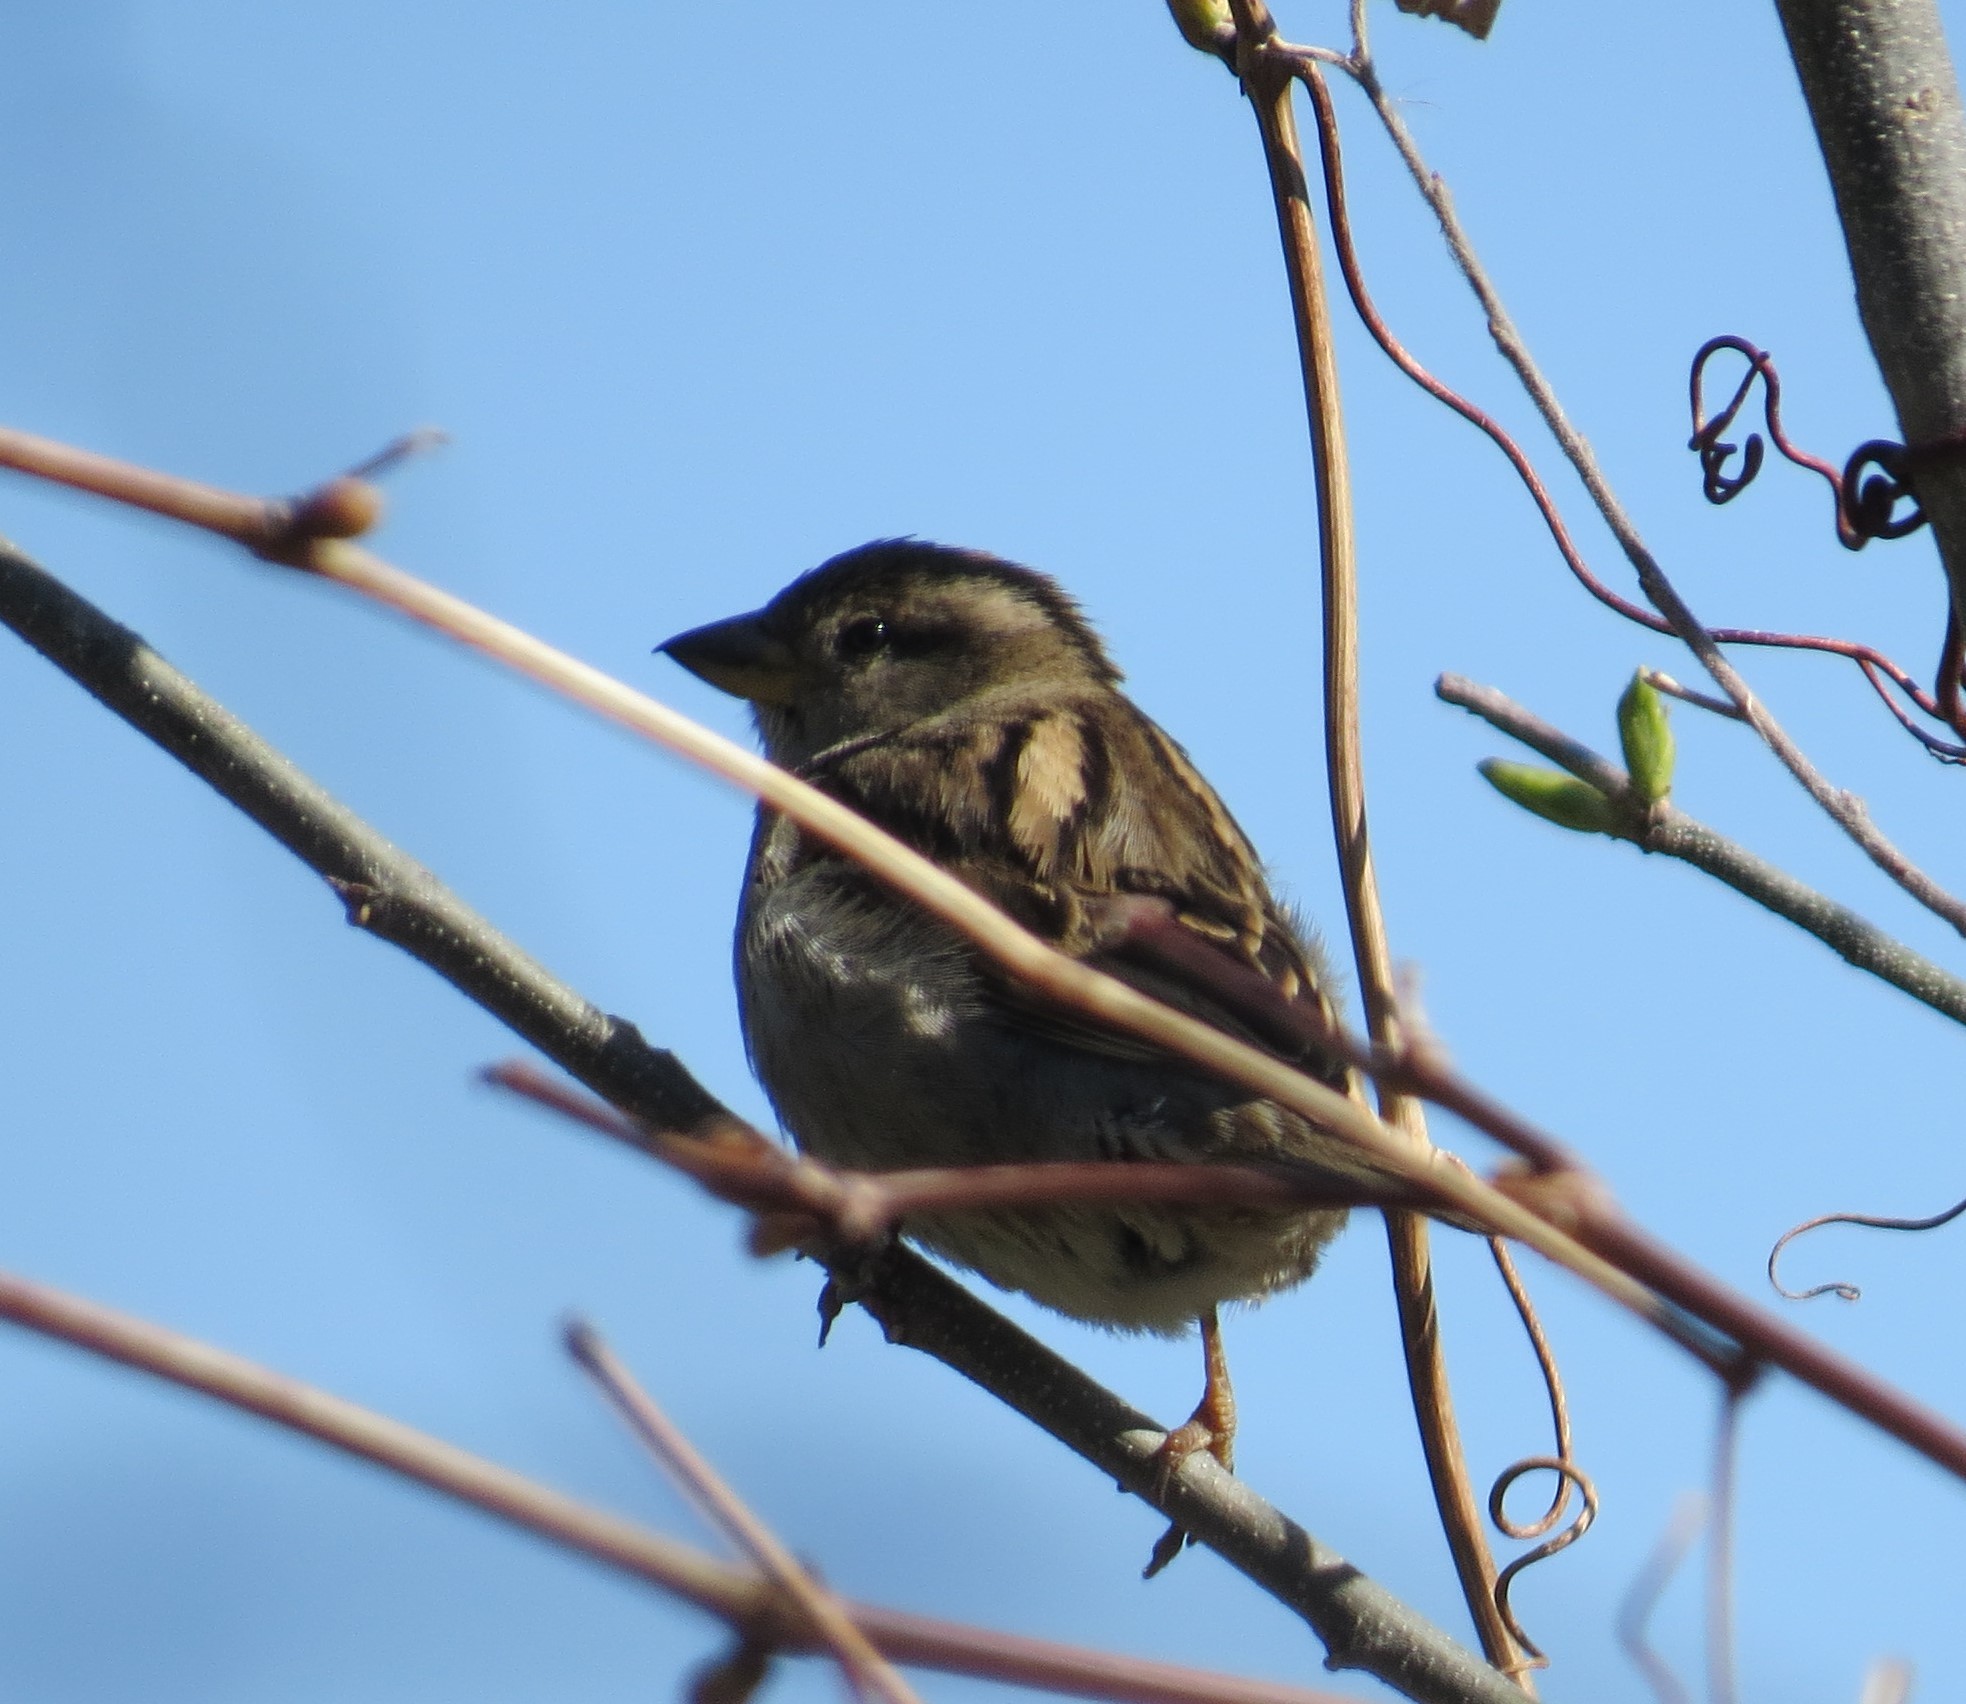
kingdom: Animalia
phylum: Chordata
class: Aves
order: Passeriformes
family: Passeridae
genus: Passer
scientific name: Passer domesticus
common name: House sparrow
